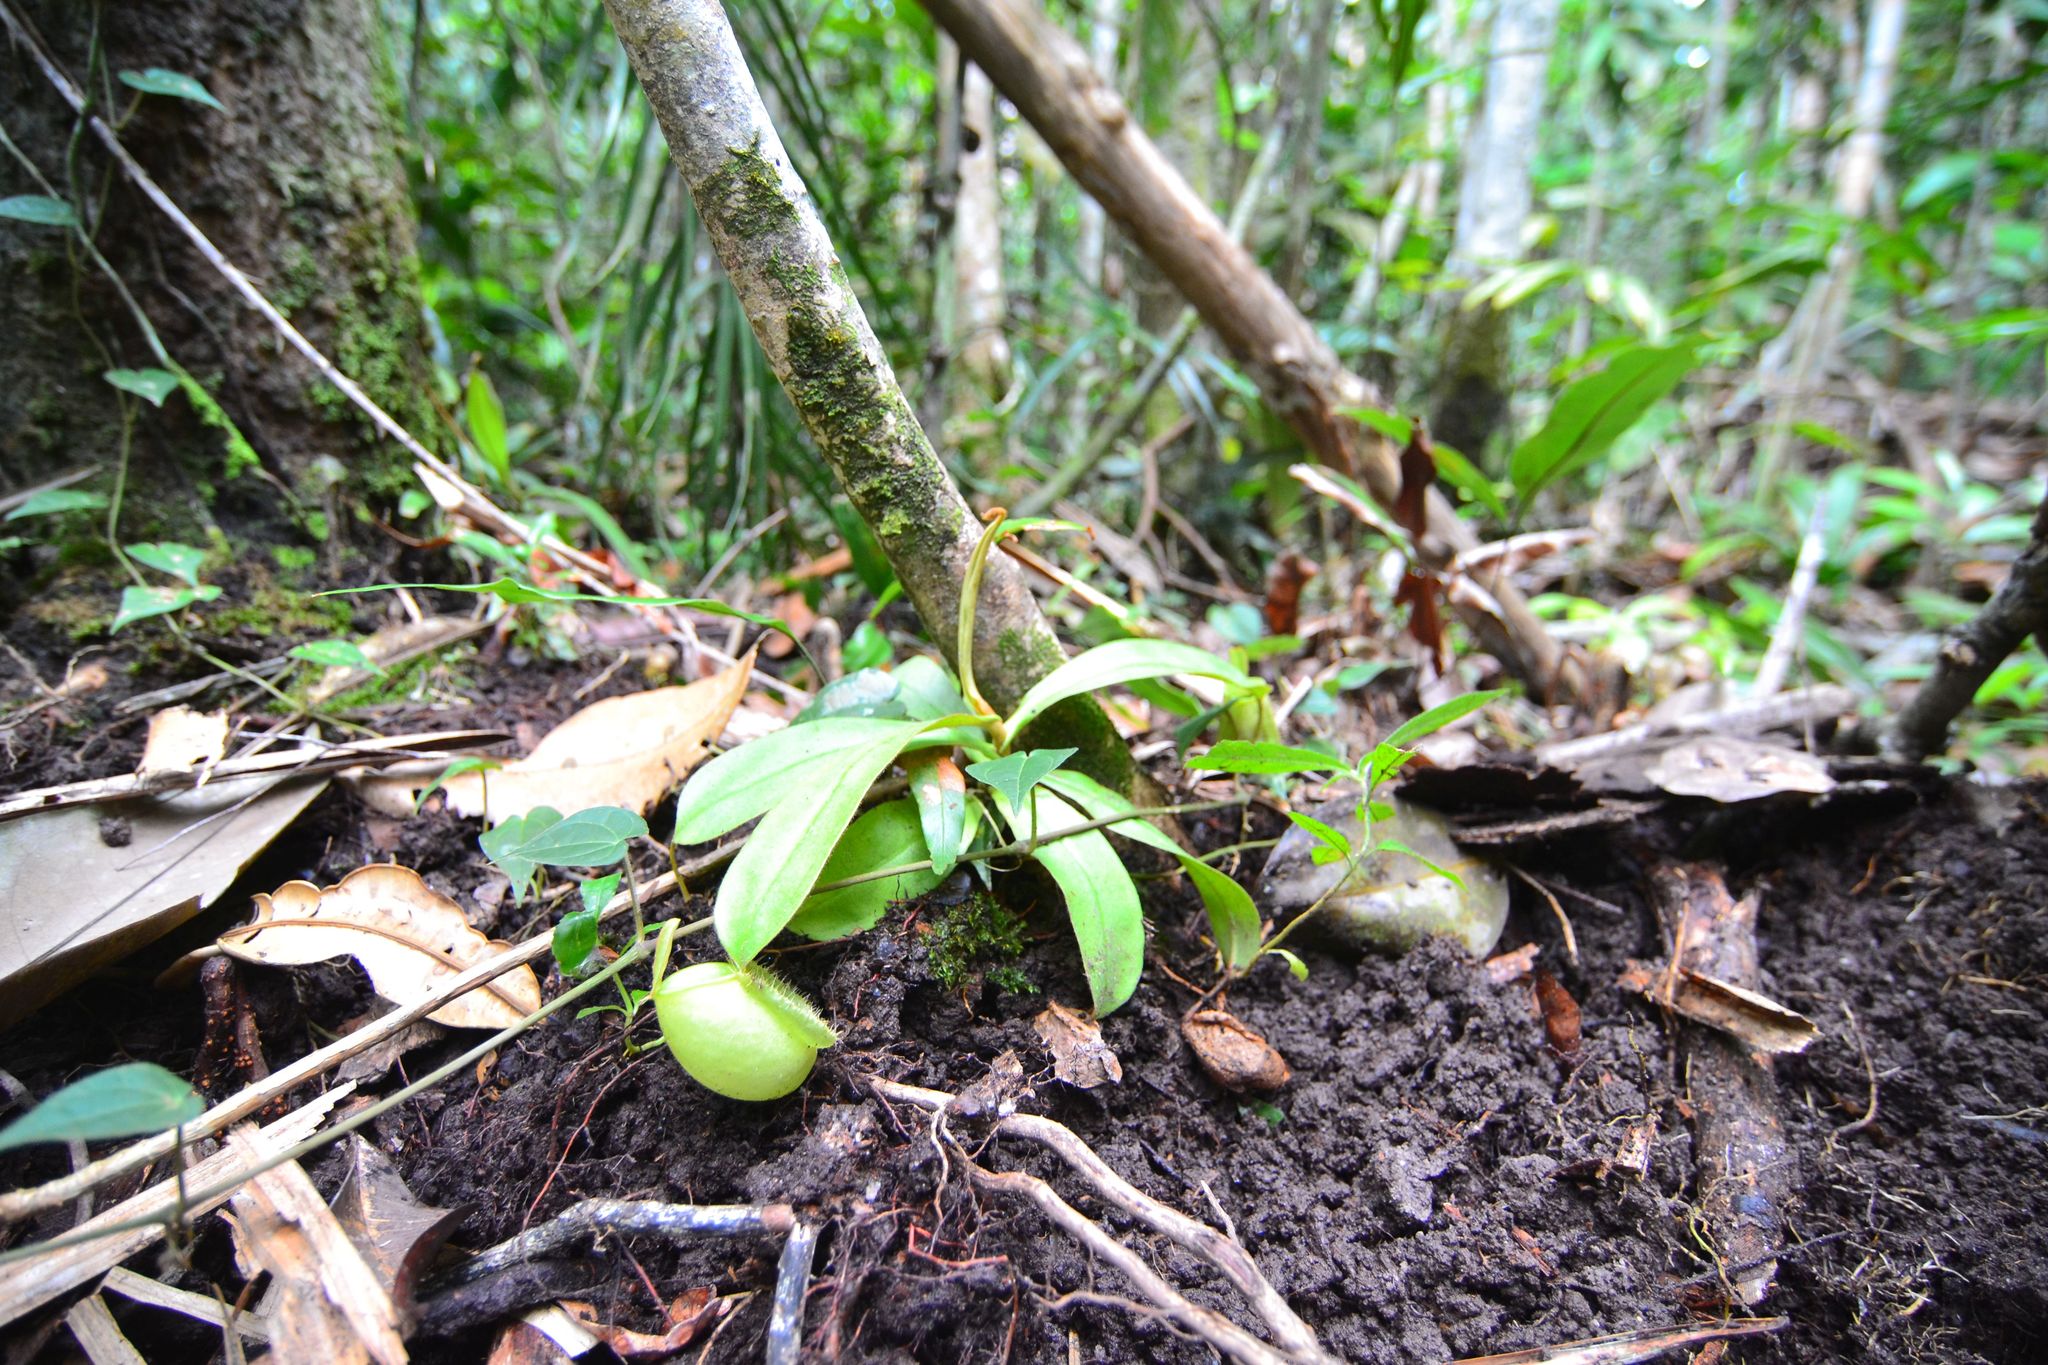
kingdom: Plantae
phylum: Tracheophyta
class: Magnoliopsida
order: Caryophyllales
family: Nepenthaceae
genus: Nepenthes
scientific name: Nepenthes ampullaria
